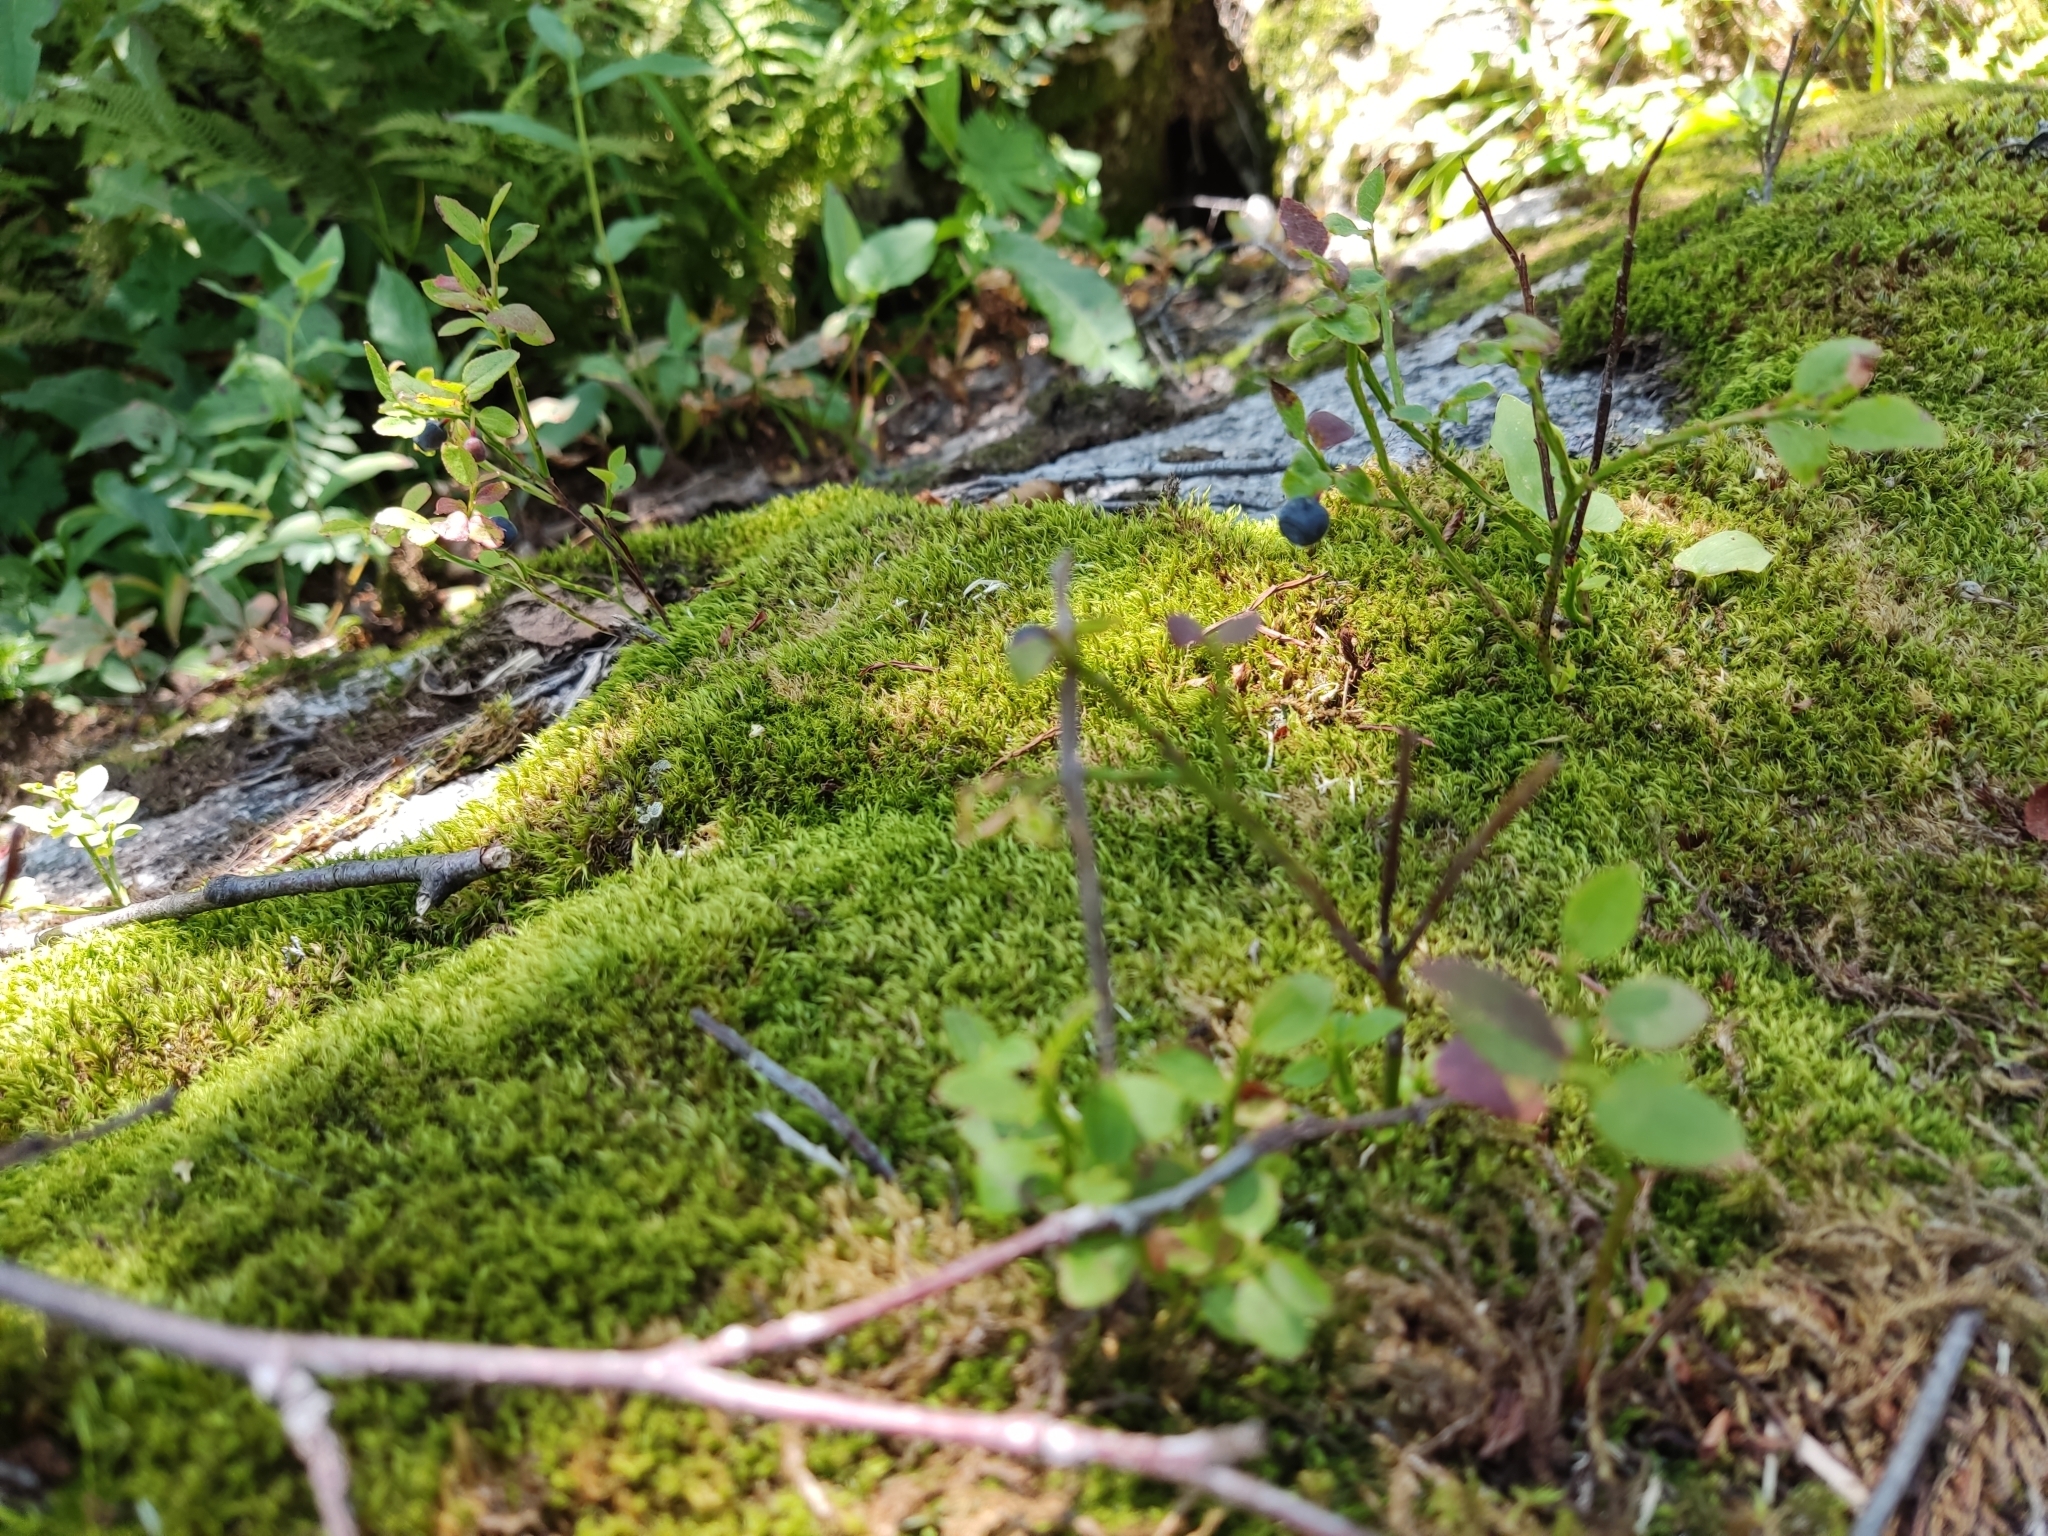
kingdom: Plantae
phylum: Tracheophyta
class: Magnoliopsida
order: Ericales
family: Ericaceae
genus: Vaccinium
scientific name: Vaccinium myrtillus
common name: Bilberry
